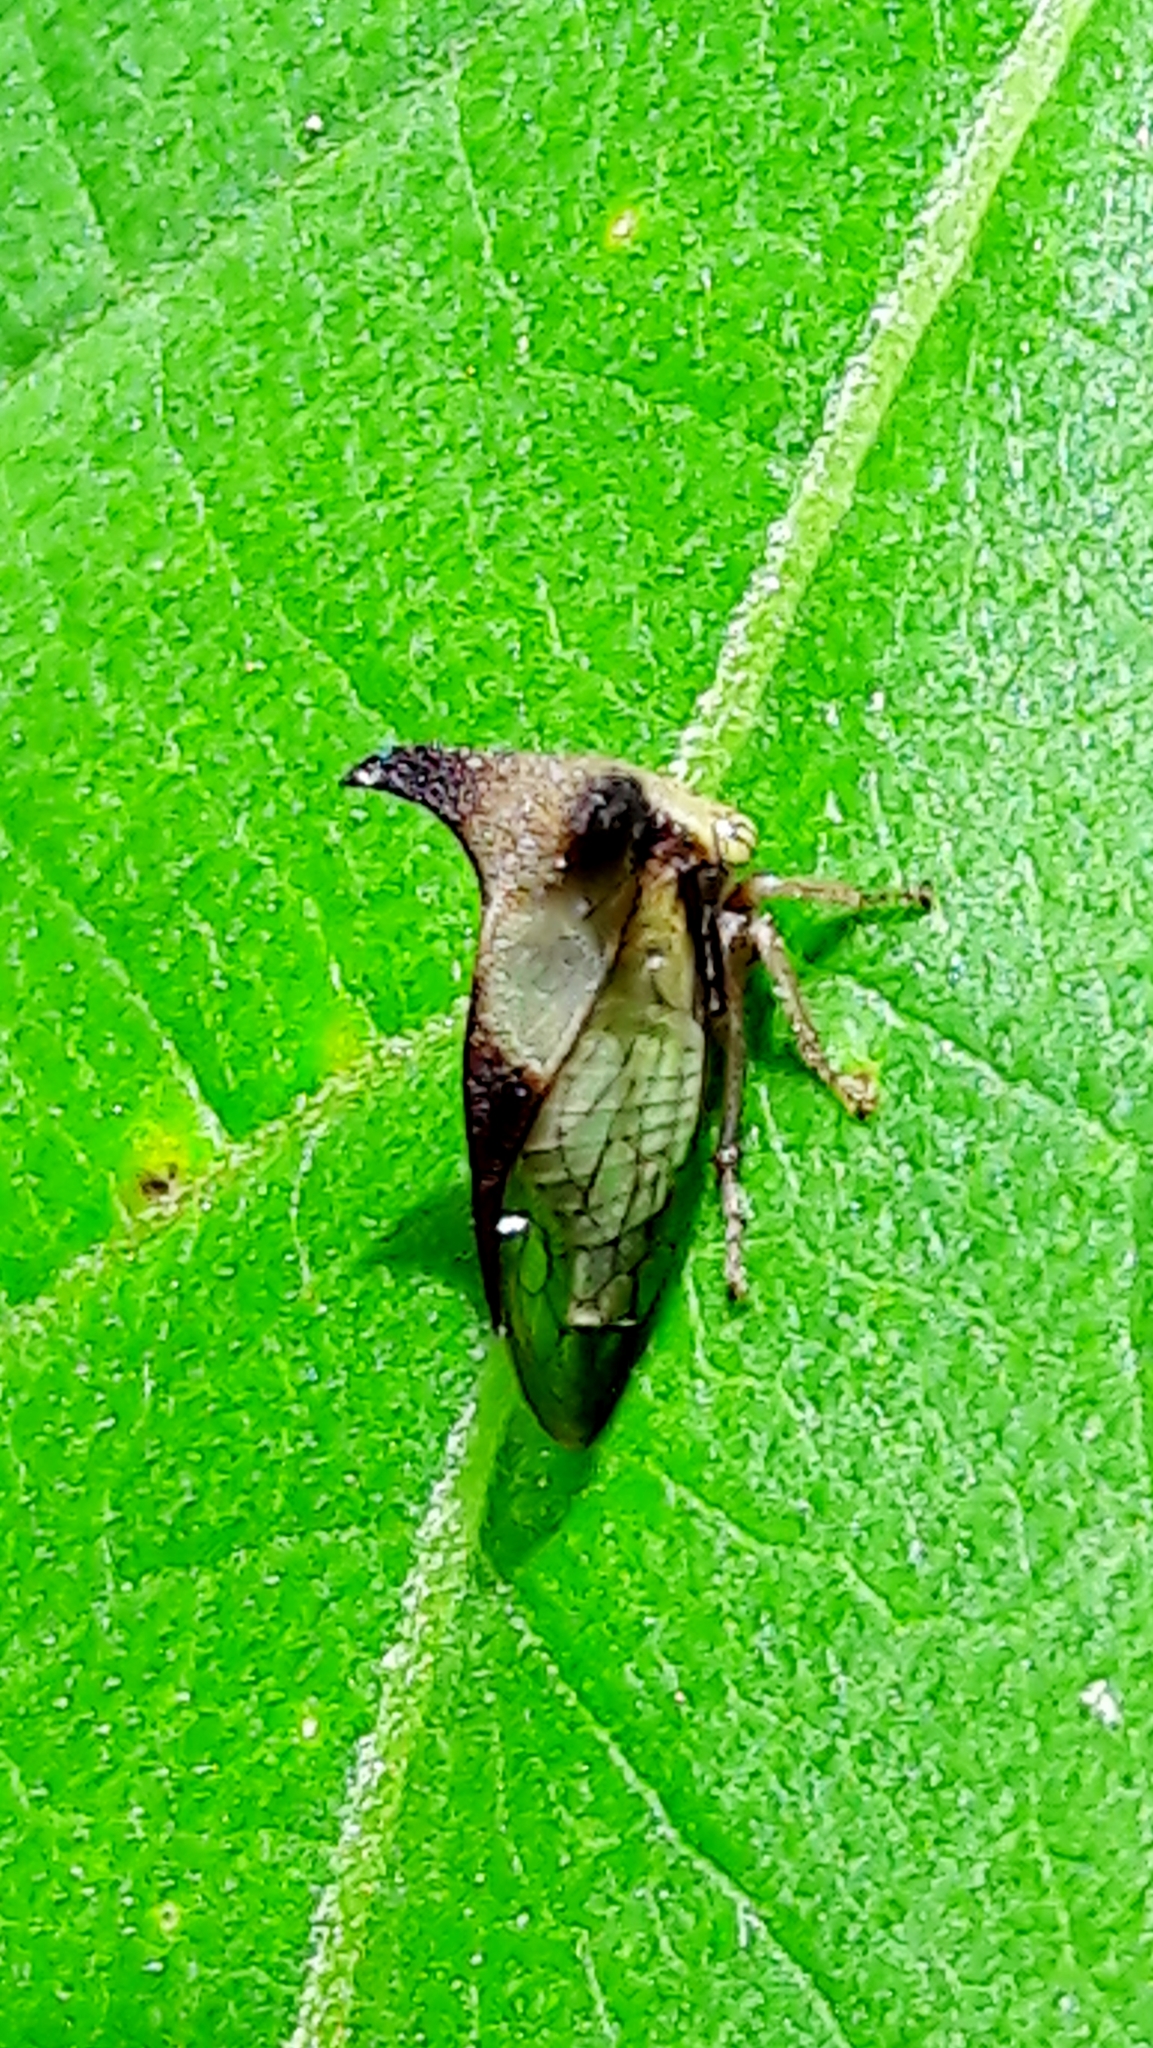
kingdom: Animalia
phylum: Arthropoda
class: Insecta
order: Hemiptera
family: Membracidae
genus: Ceresa
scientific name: Ceresa ustulata
